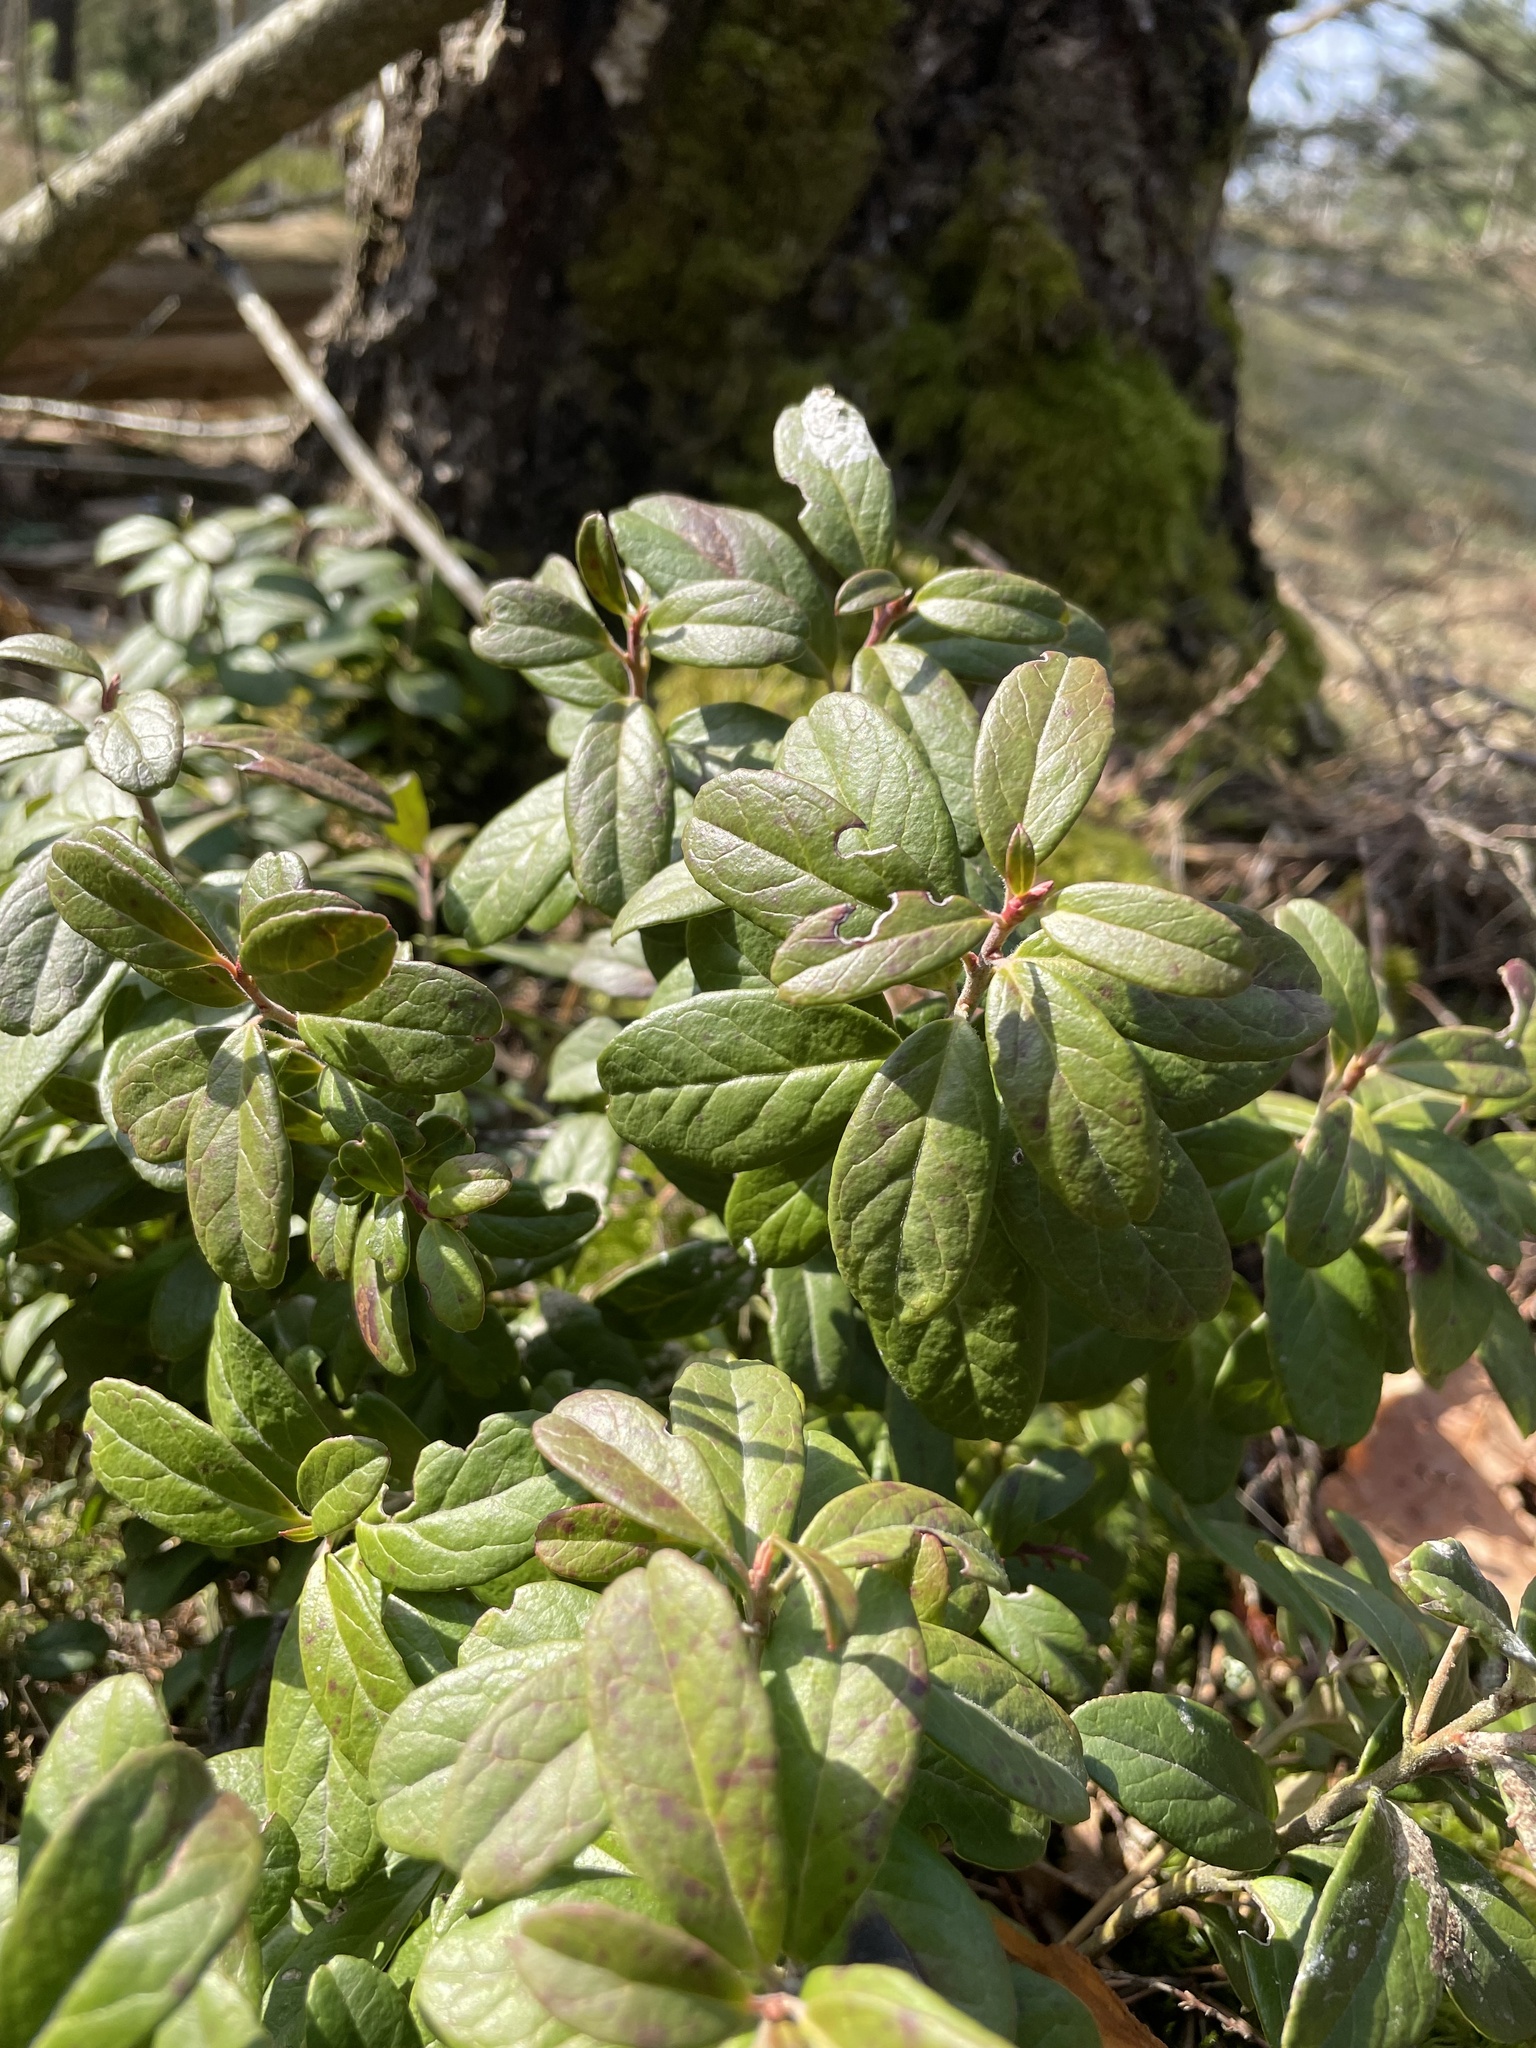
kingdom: Plantae
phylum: Tracheophyta
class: Magnoliopsida
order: Ericales
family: Ericaceae
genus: Vaccinium
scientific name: Vaccinium vitis-idaea
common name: Cowberry
